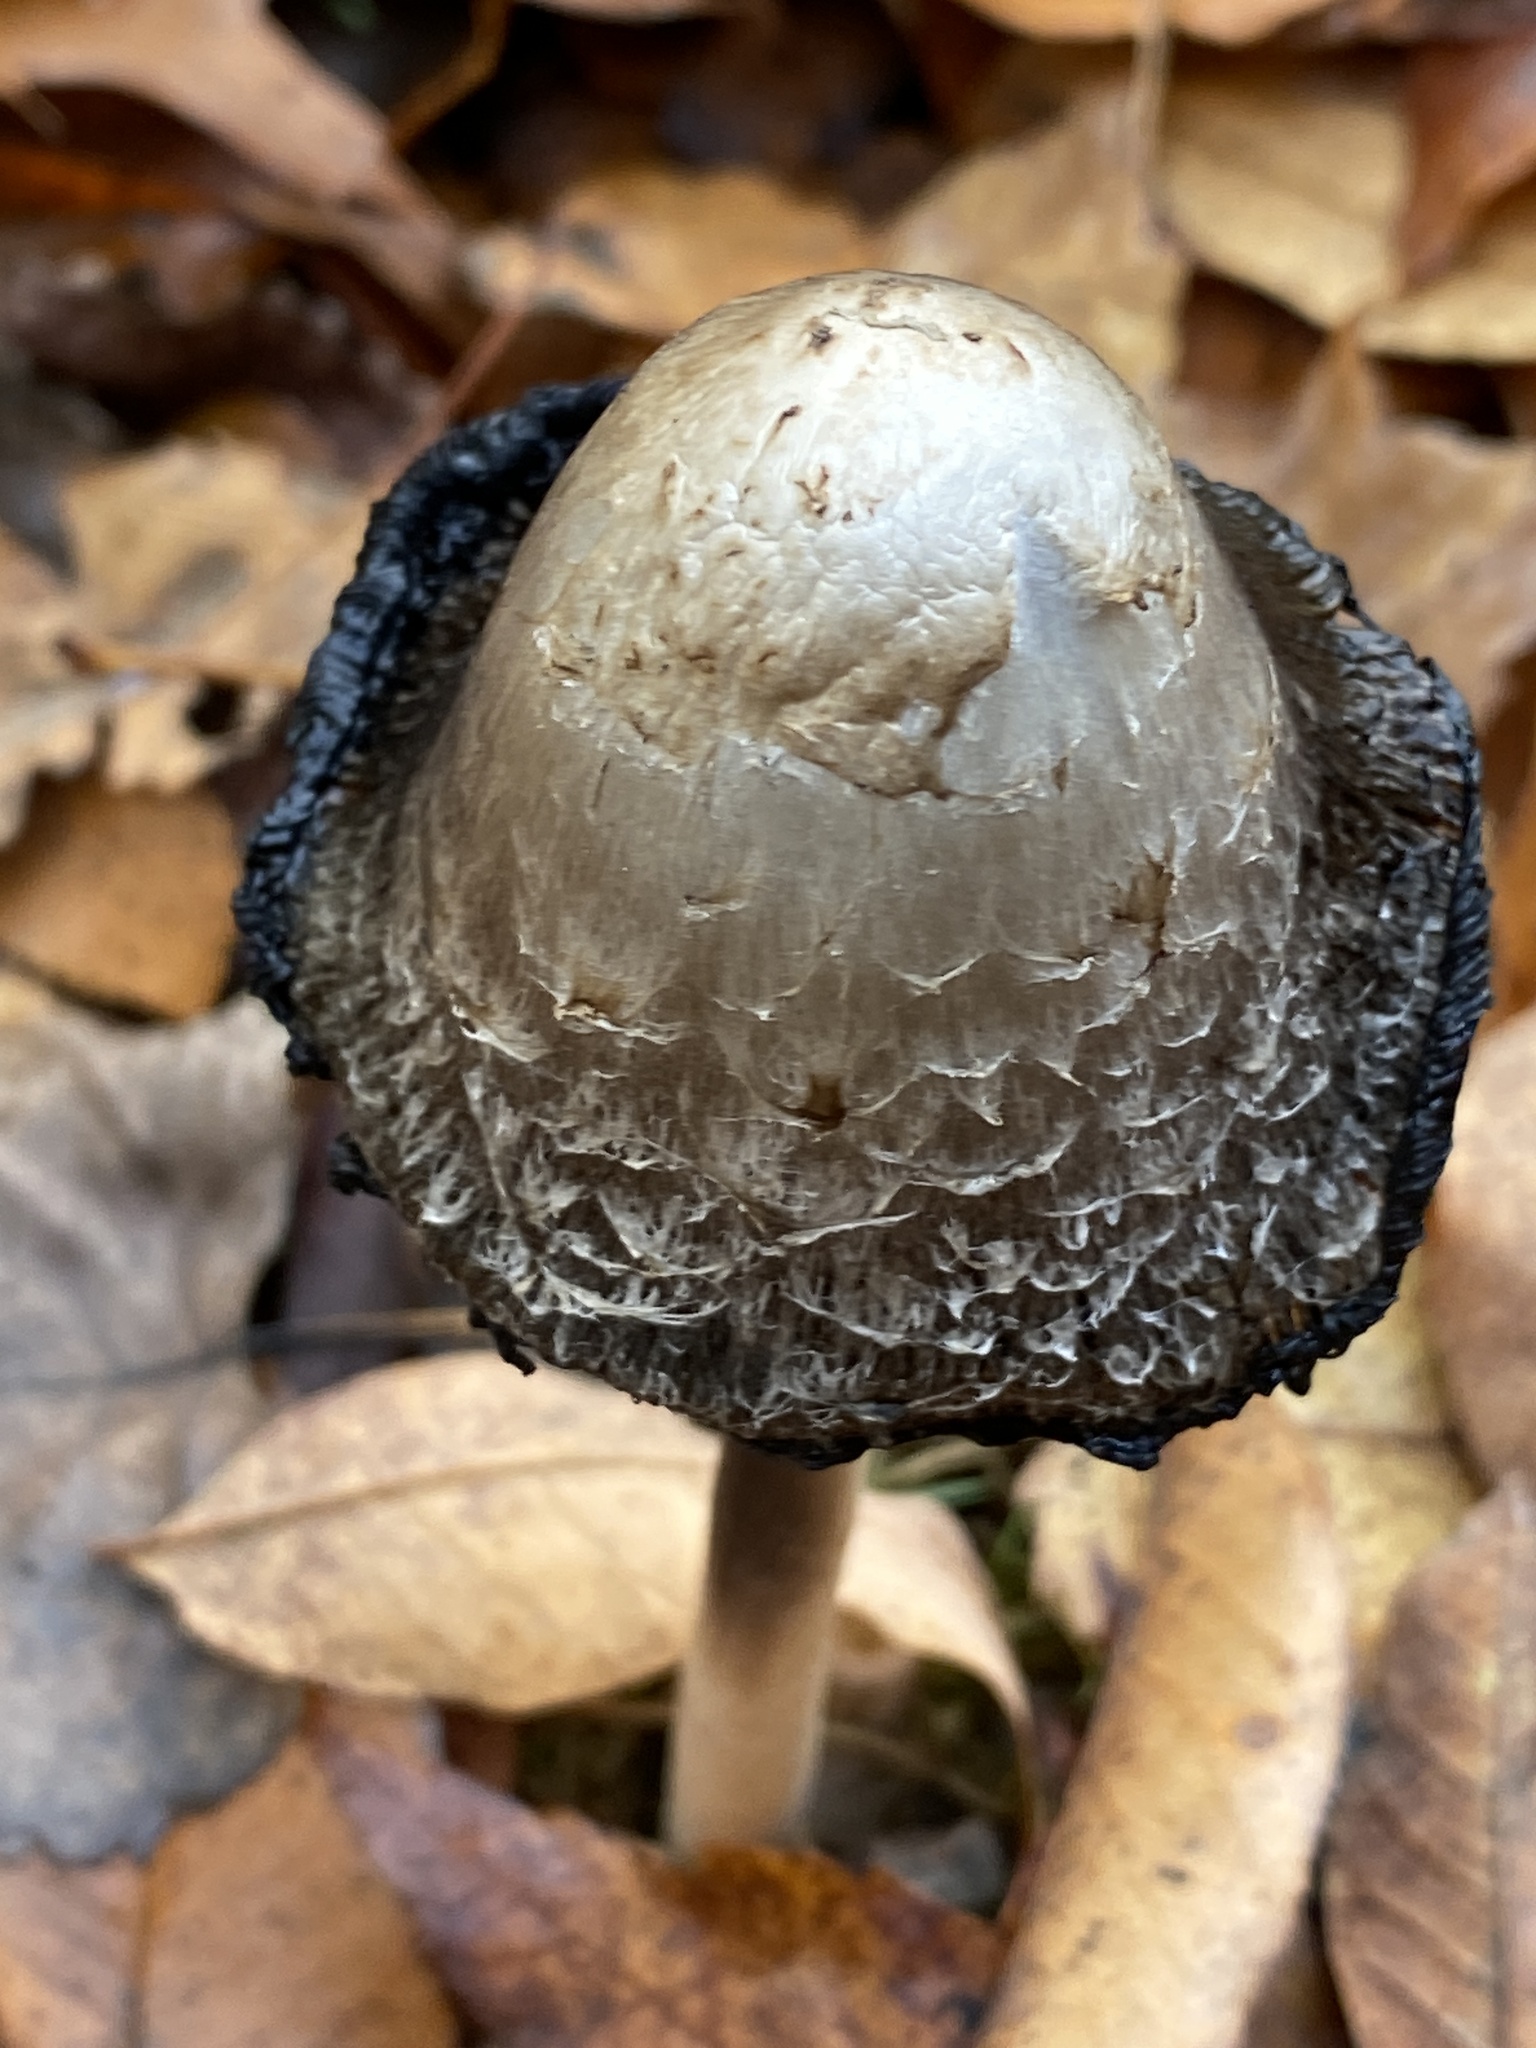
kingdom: Fungi
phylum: Basidiomycota
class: Agaricomycetes
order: Agaricales
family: Agaricaceae
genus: Coprinus
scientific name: Coprinus comatus
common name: Lawyer's wig
